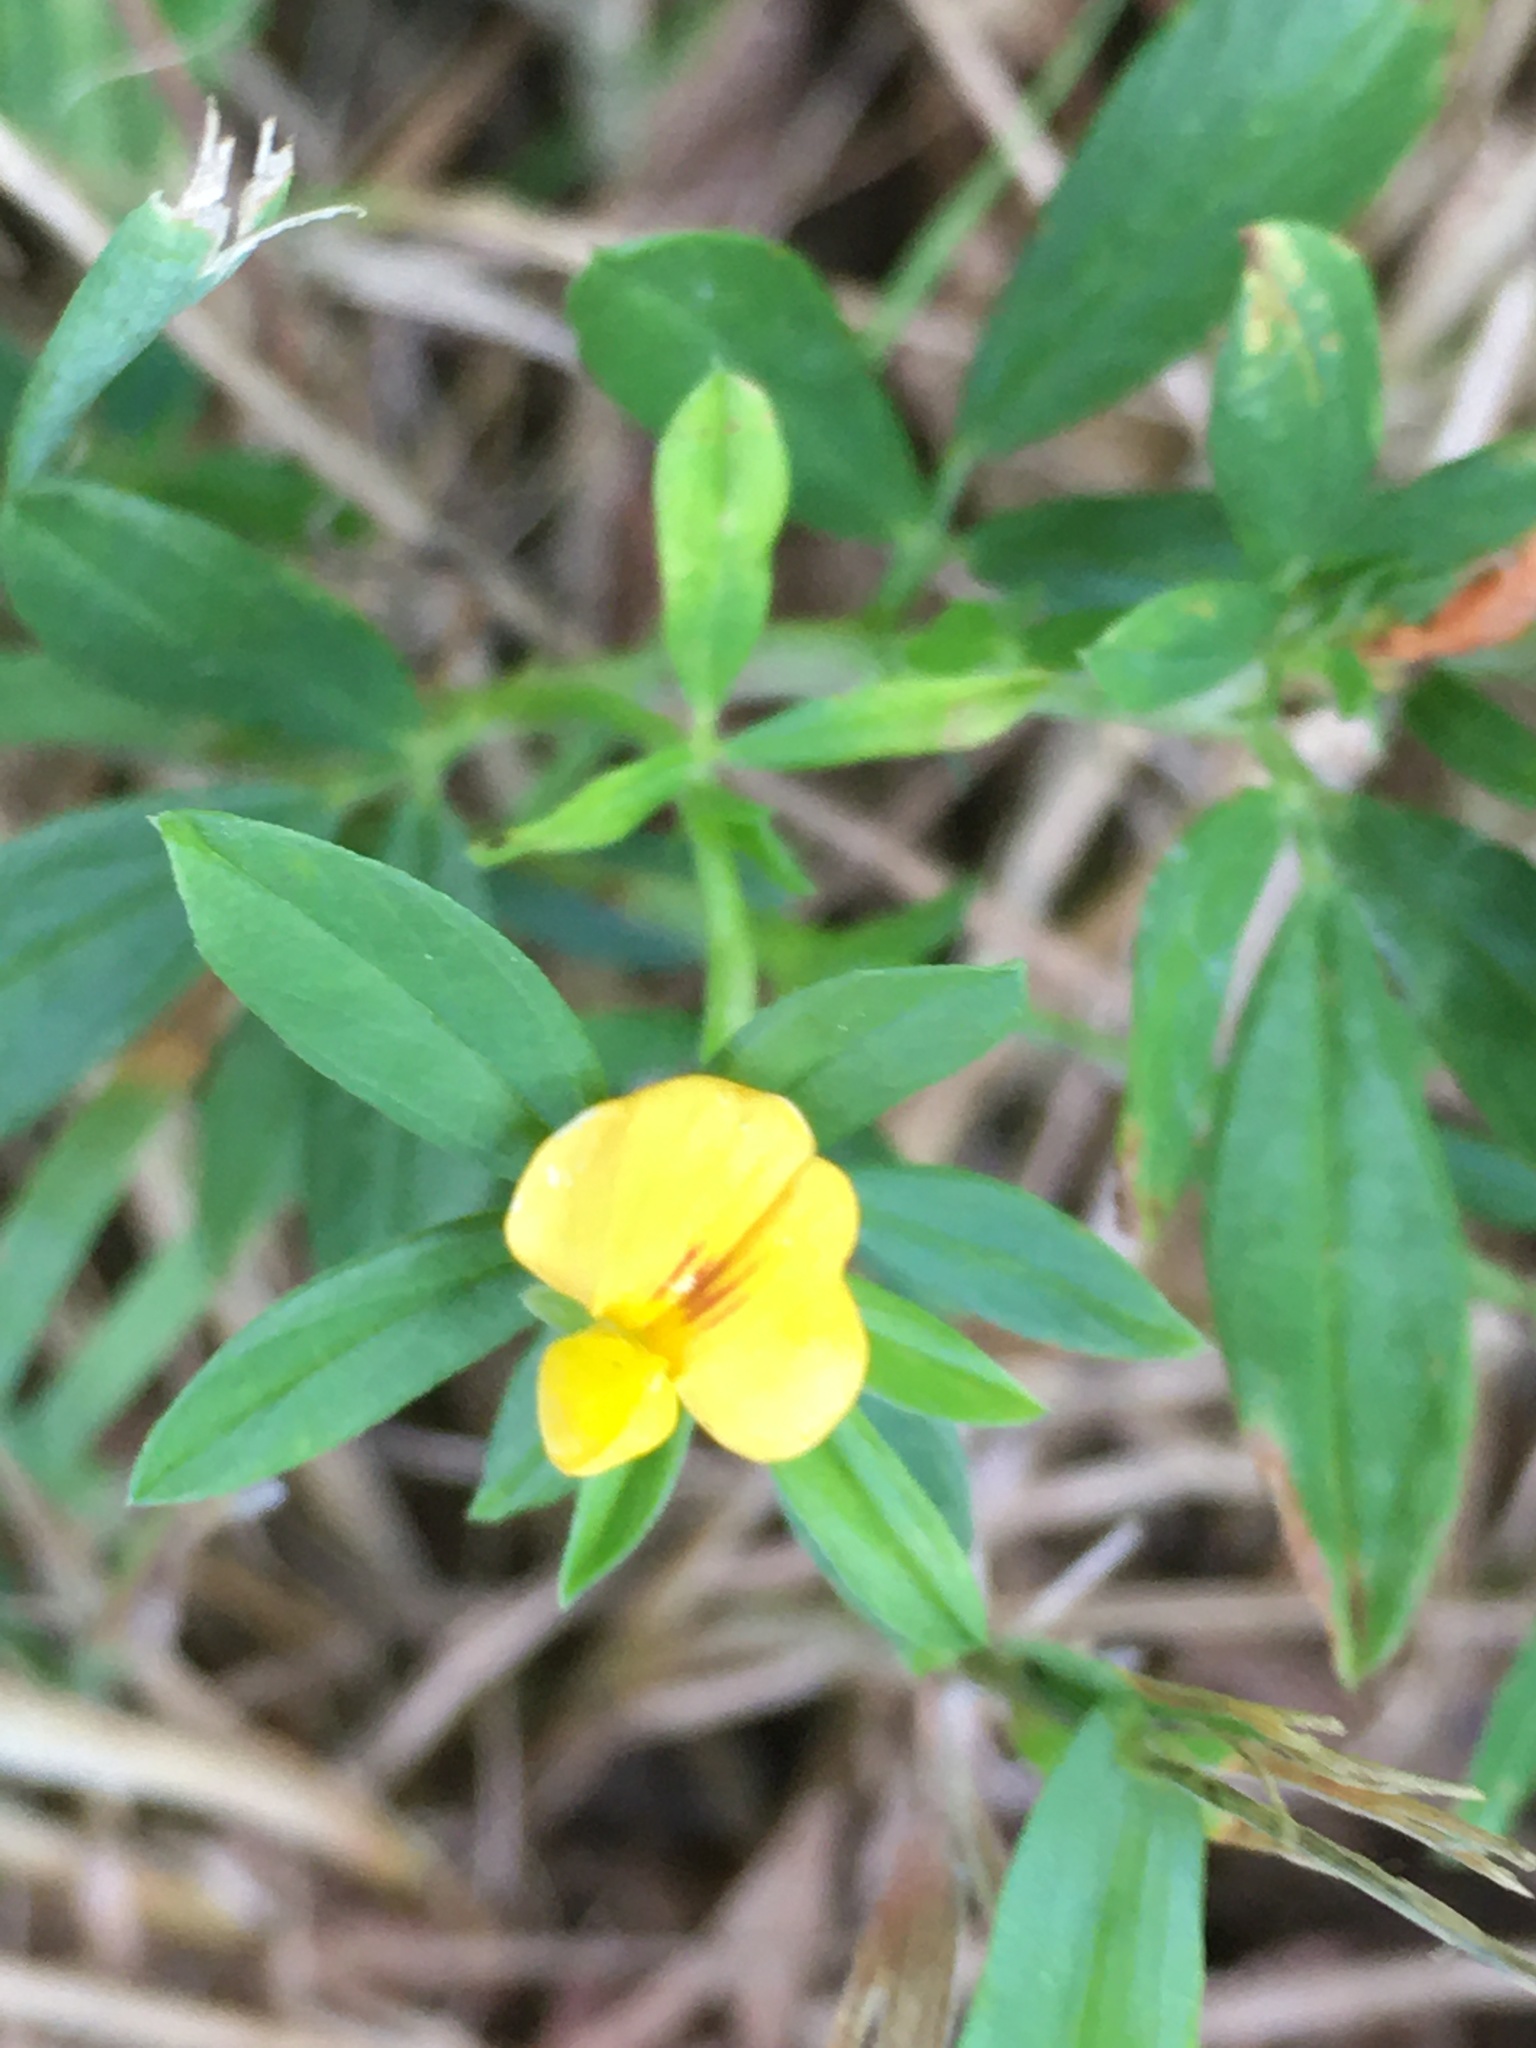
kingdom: Plantae
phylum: Tracheophyta
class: Magnoliopsida
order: Fabales
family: Fabaceae
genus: Stylosanthes
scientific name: Stylosanthes biflora
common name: Two-flower pencil-flower
